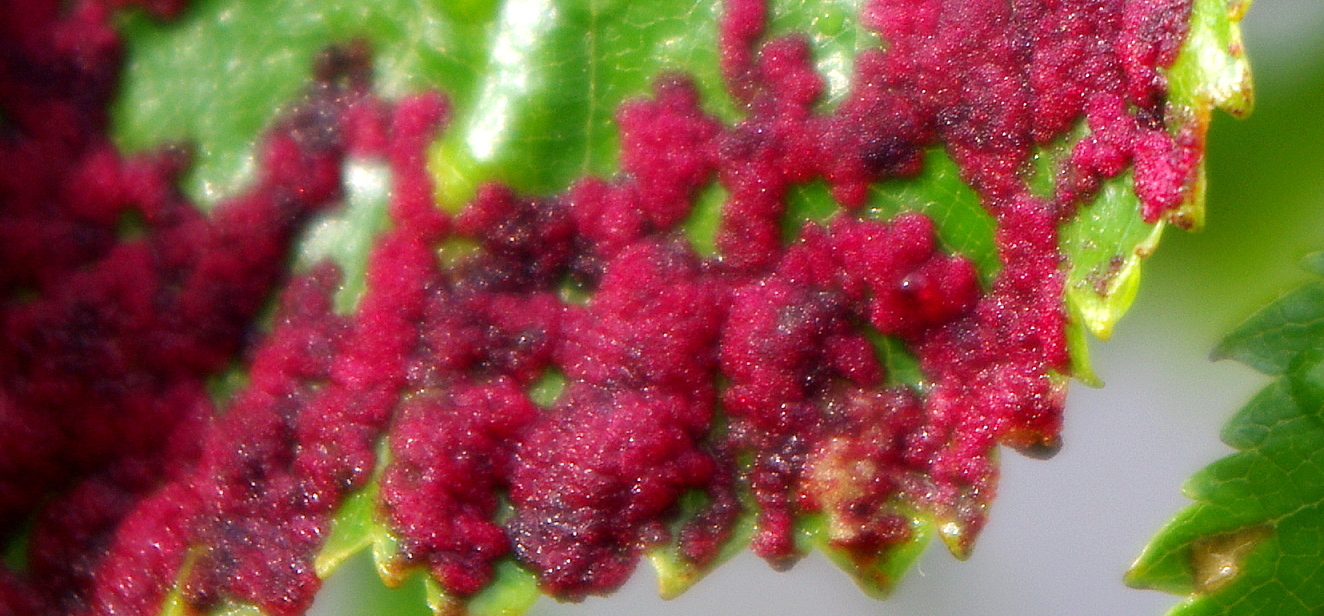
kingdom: Animalia
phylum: Arthropoda
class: Arachnida
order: Trombidiformes
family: Eriophyidae
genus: Acalitus
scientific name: Acalitus longisetosus
